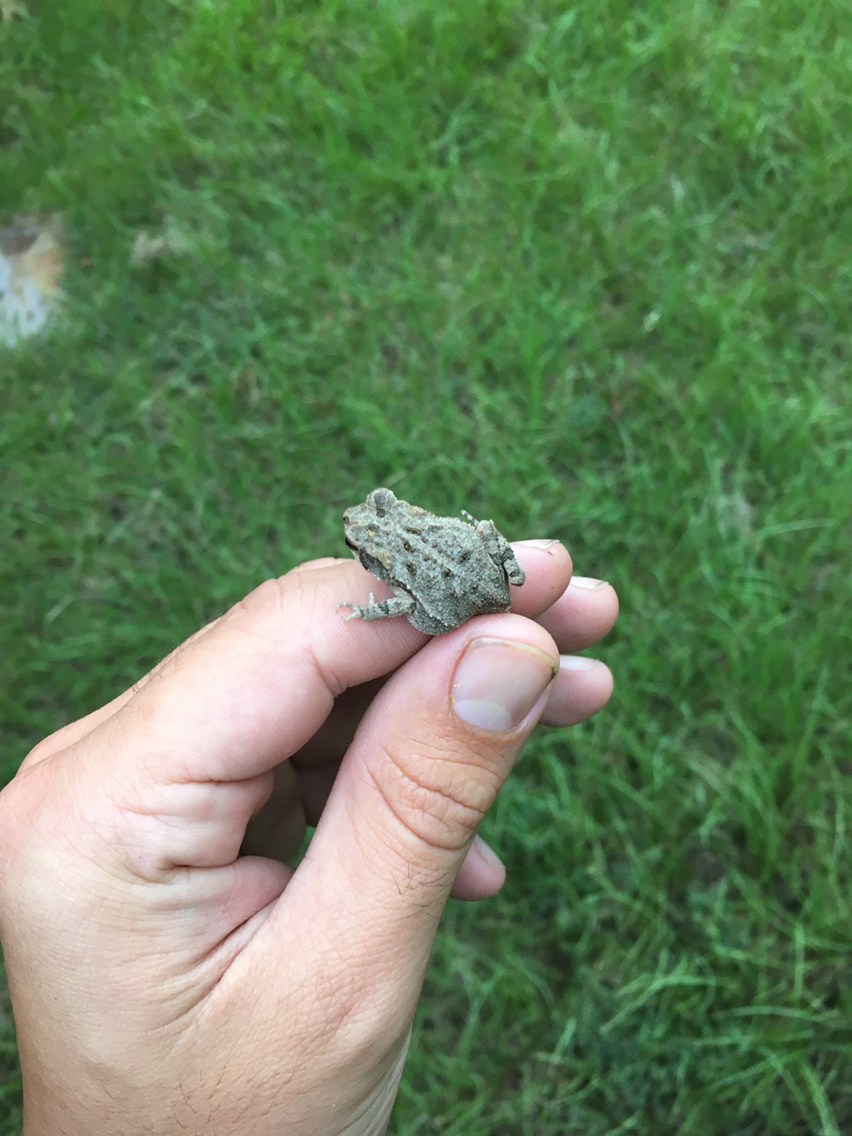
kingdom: Animalia
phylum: Chordata
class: Amphibia
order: Anura
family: Bufonidae
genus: Incilius
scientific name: Incilius nebulifer
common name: Gulf coast toad
